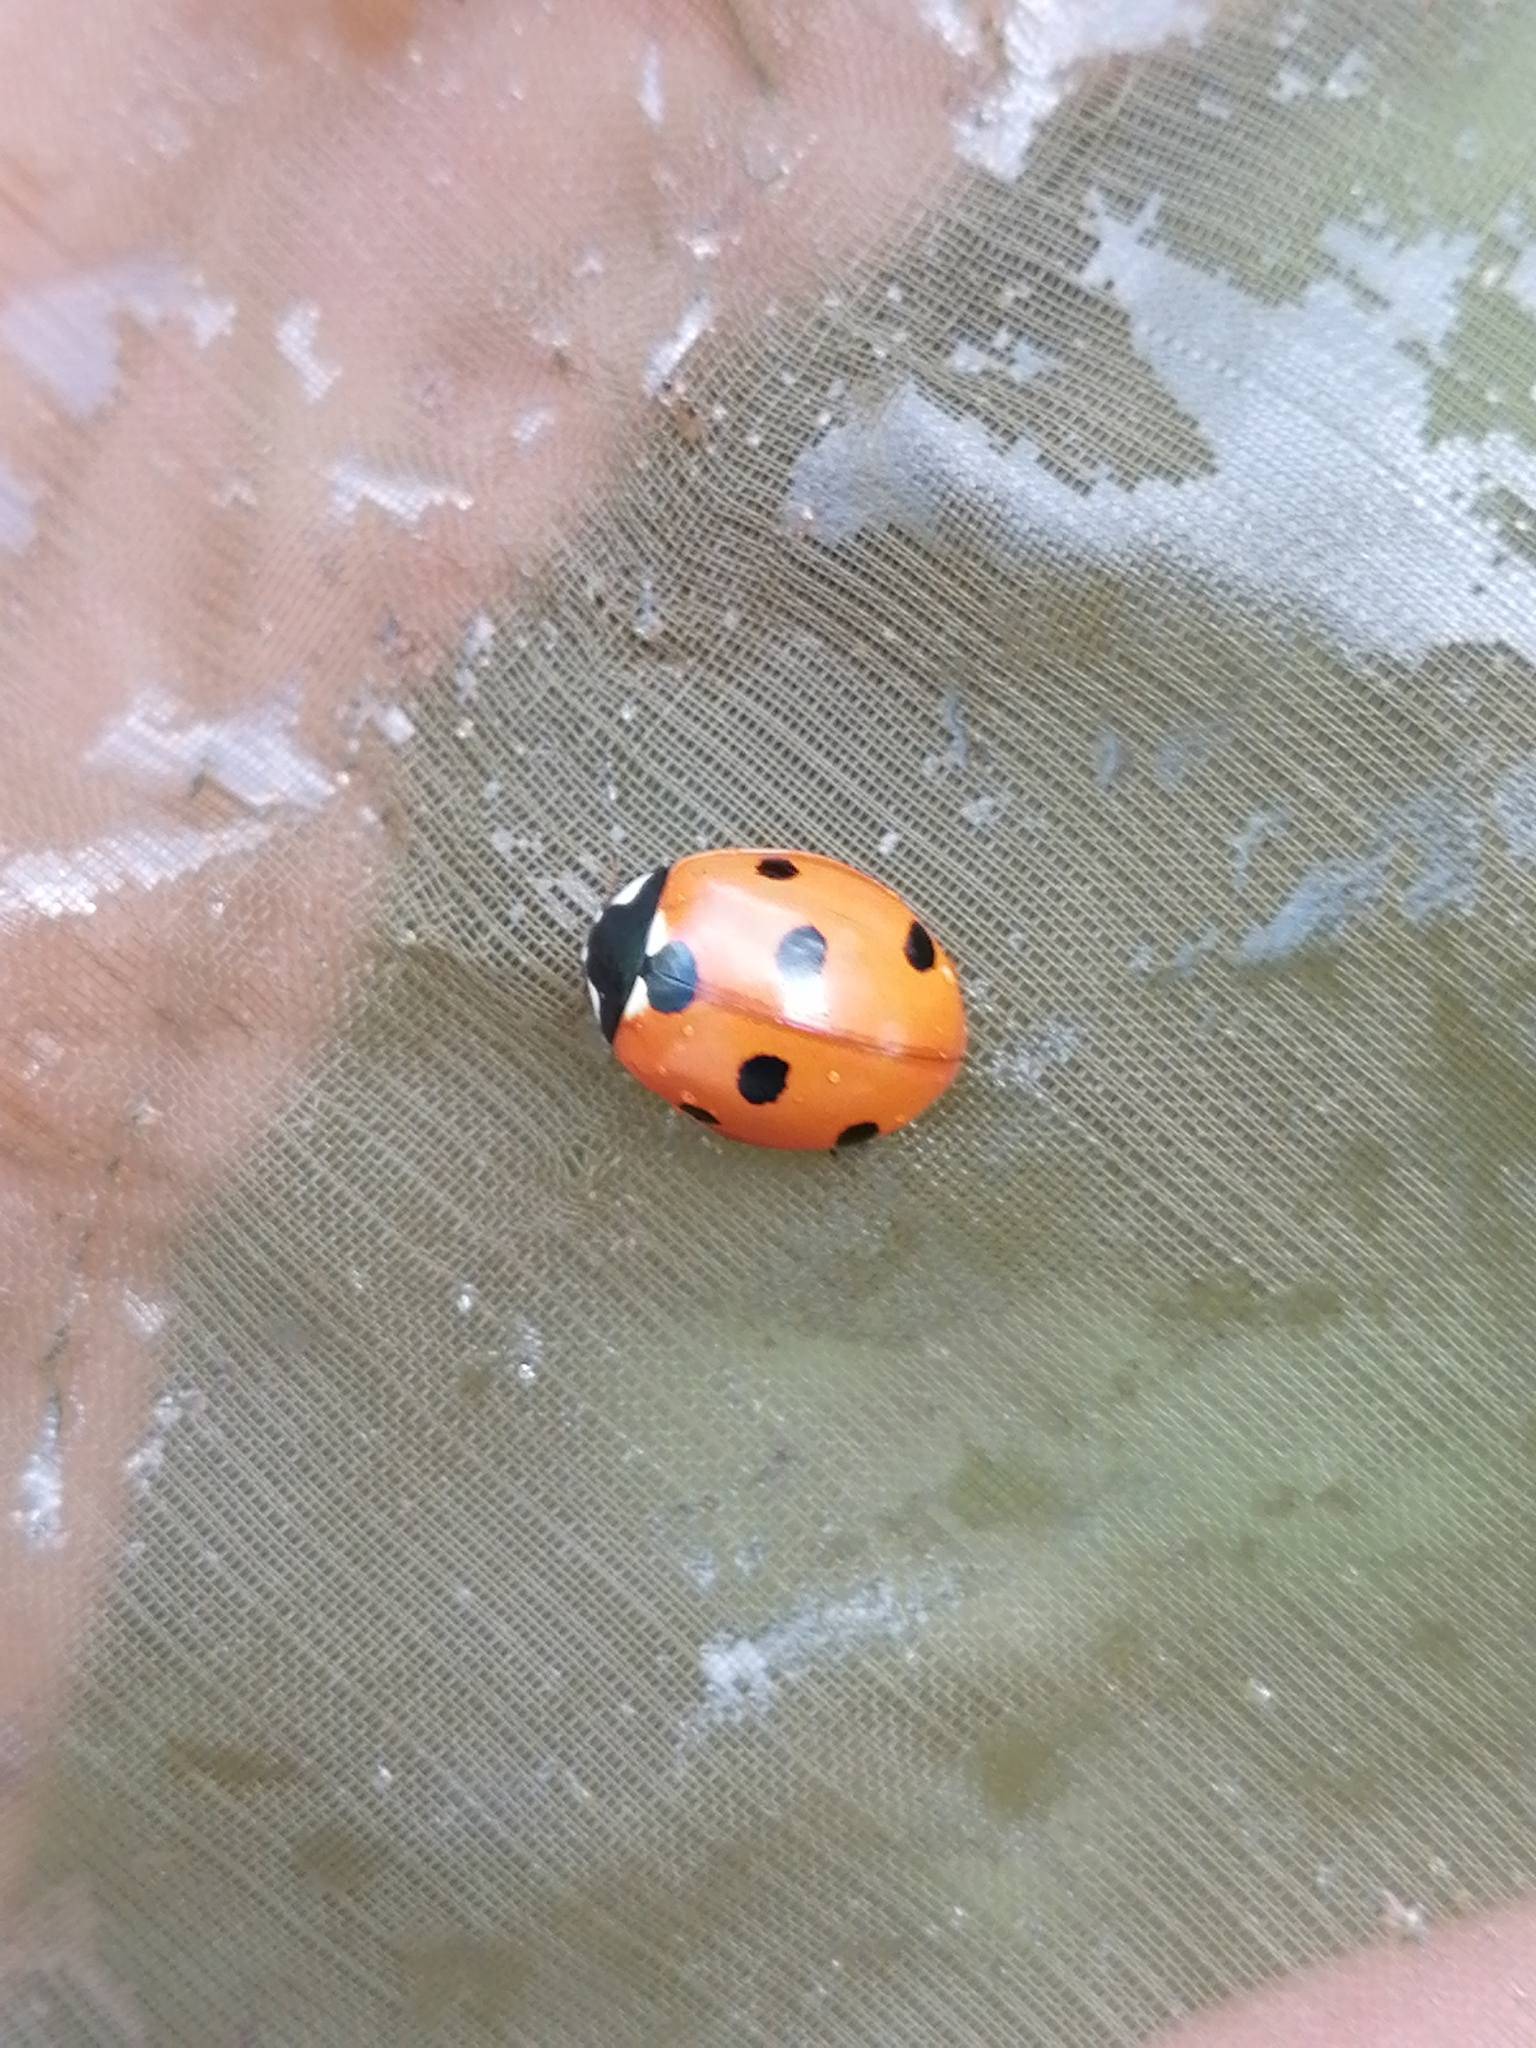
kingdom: Animalia
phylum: Arthropoda
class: Insecta
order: Coleoptera
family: Coccinellidae
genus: Coccinella
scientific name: Coccinella septempunctata
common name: Sevenspotted lady beetle
